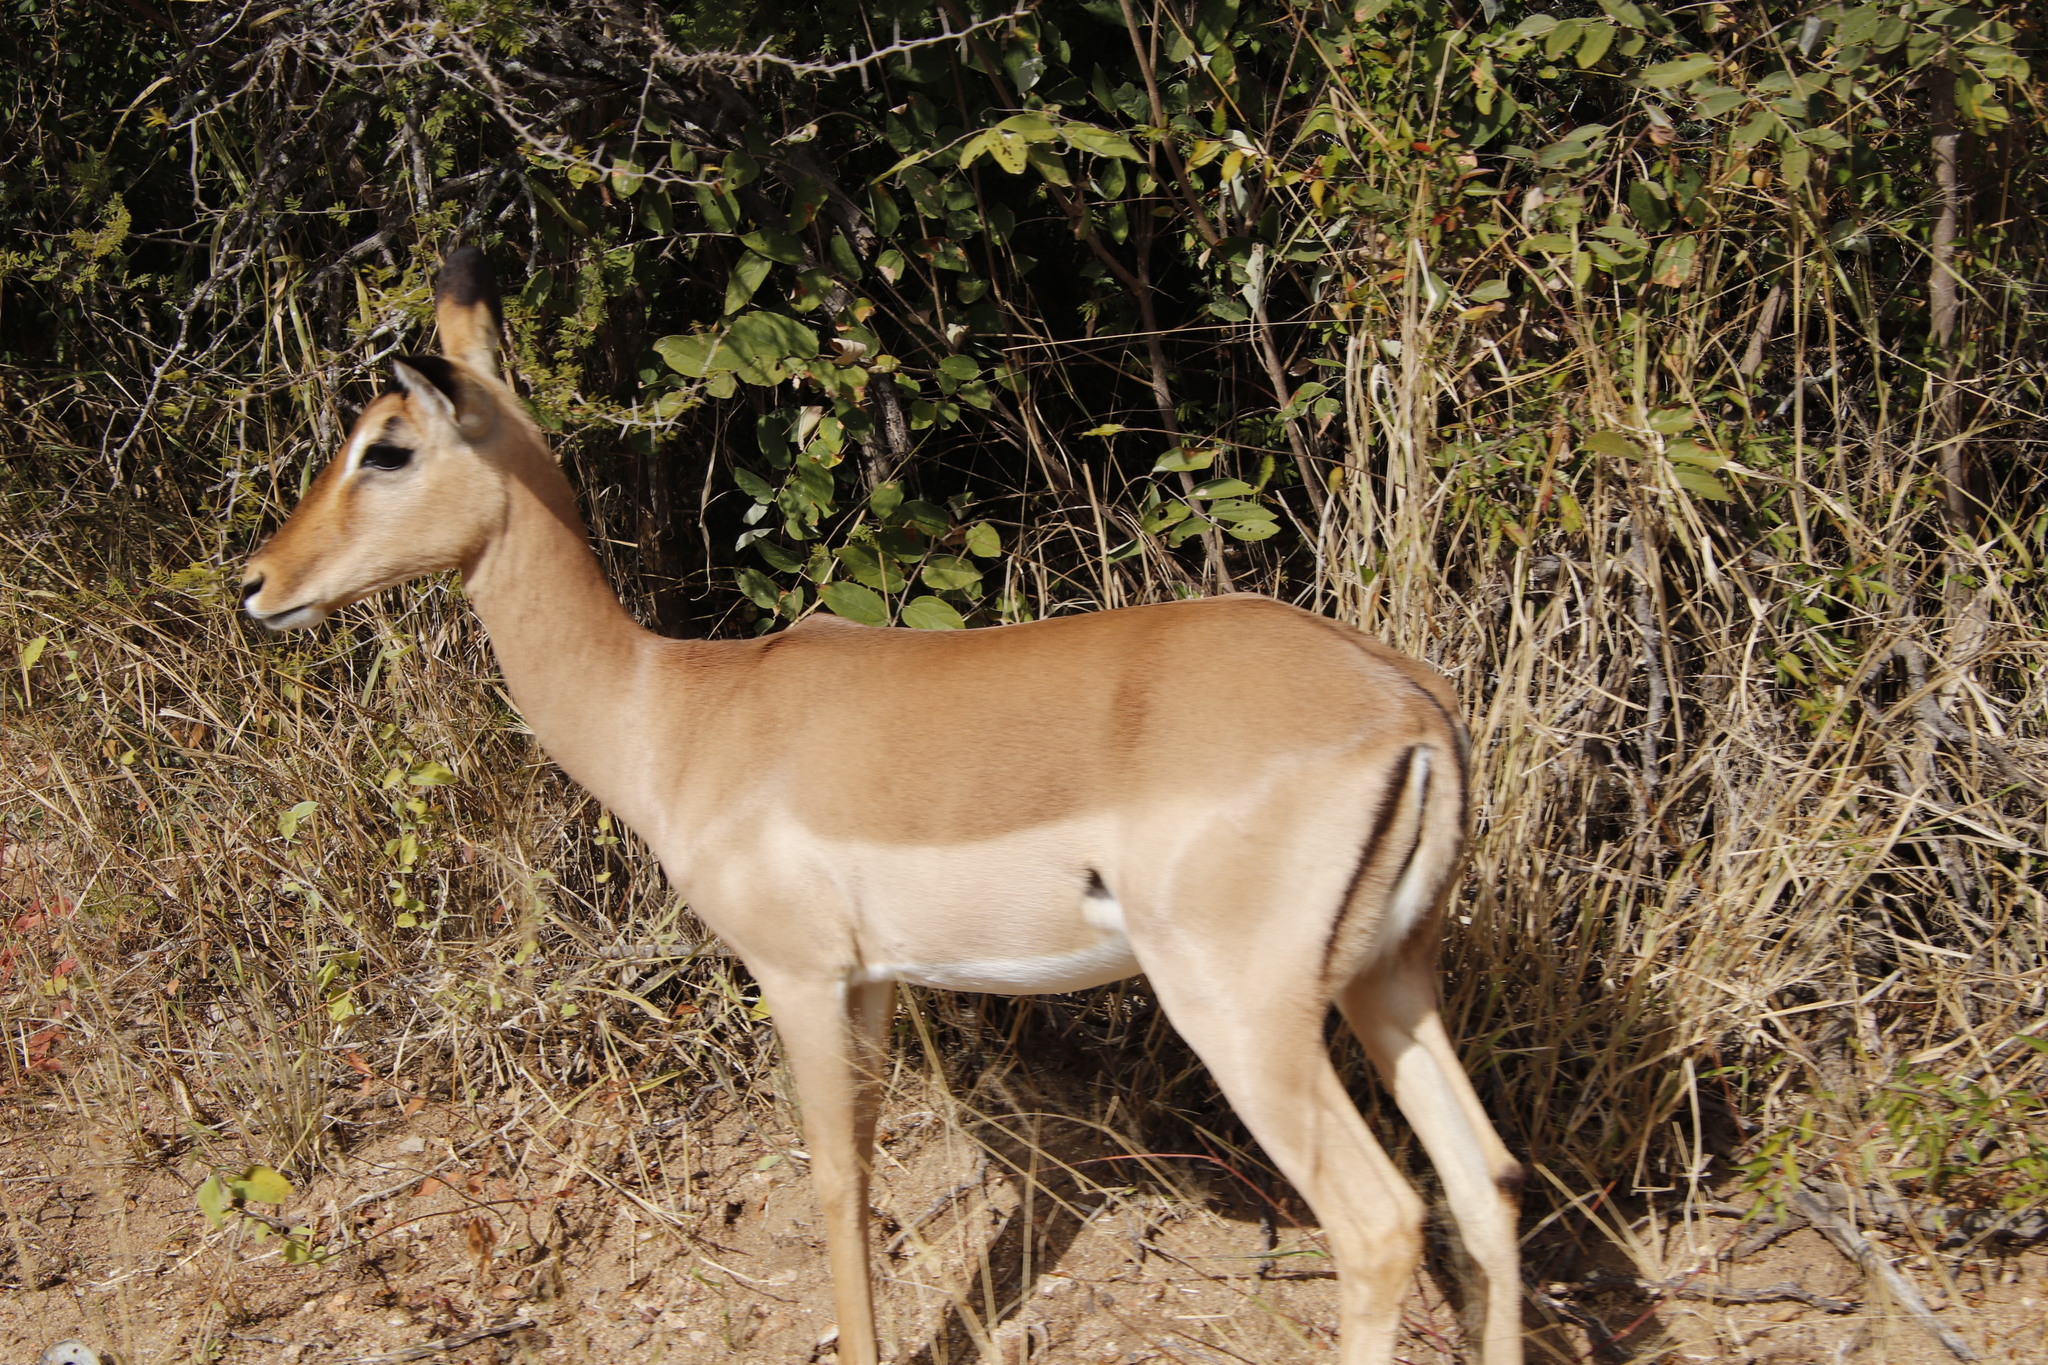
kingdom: Animalia
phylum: Chordata
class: Mammalia
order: Artiodactyla
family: Bovidae
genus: Aepyceros
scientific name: Aepyceros melampus
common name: Impala
